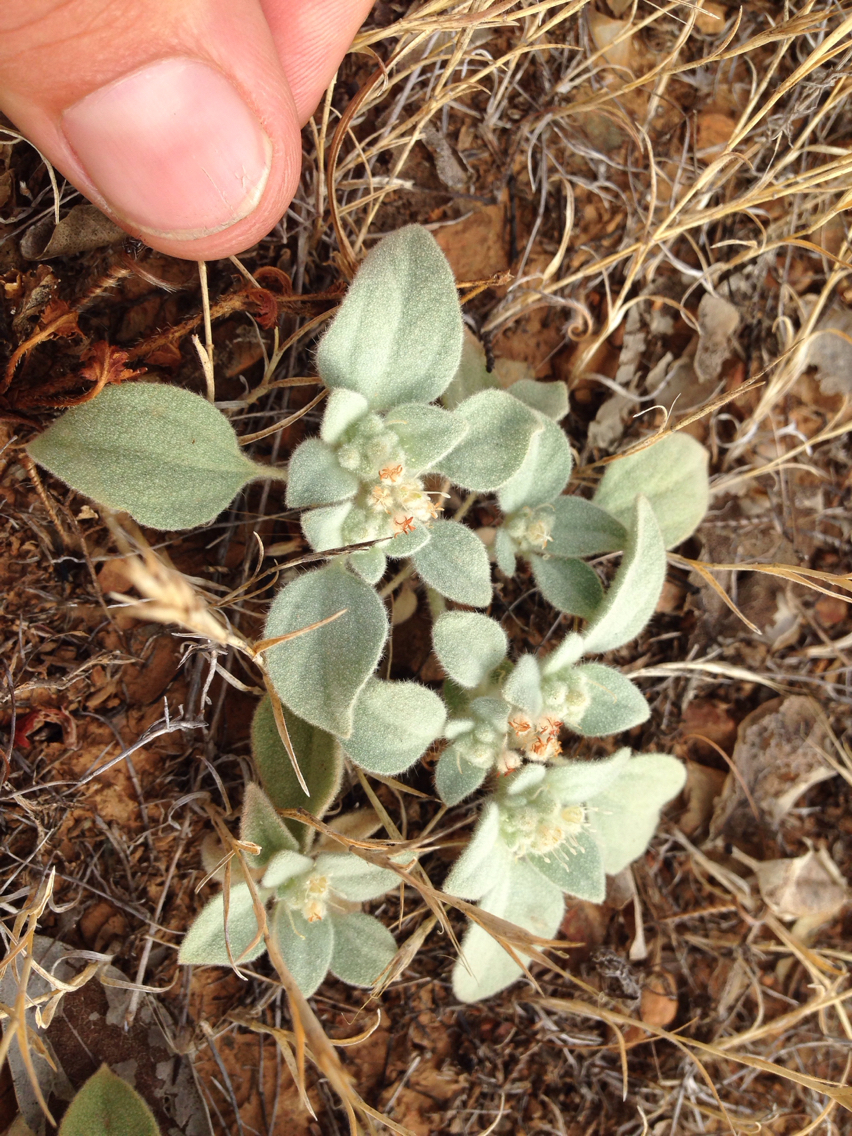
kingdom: Plantae
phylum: Tracheophyta
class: Magnoliopsida
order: Malpighiales
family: Euphorbiaceae
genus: Croton
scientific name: Croton setiger
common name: Dove weed
